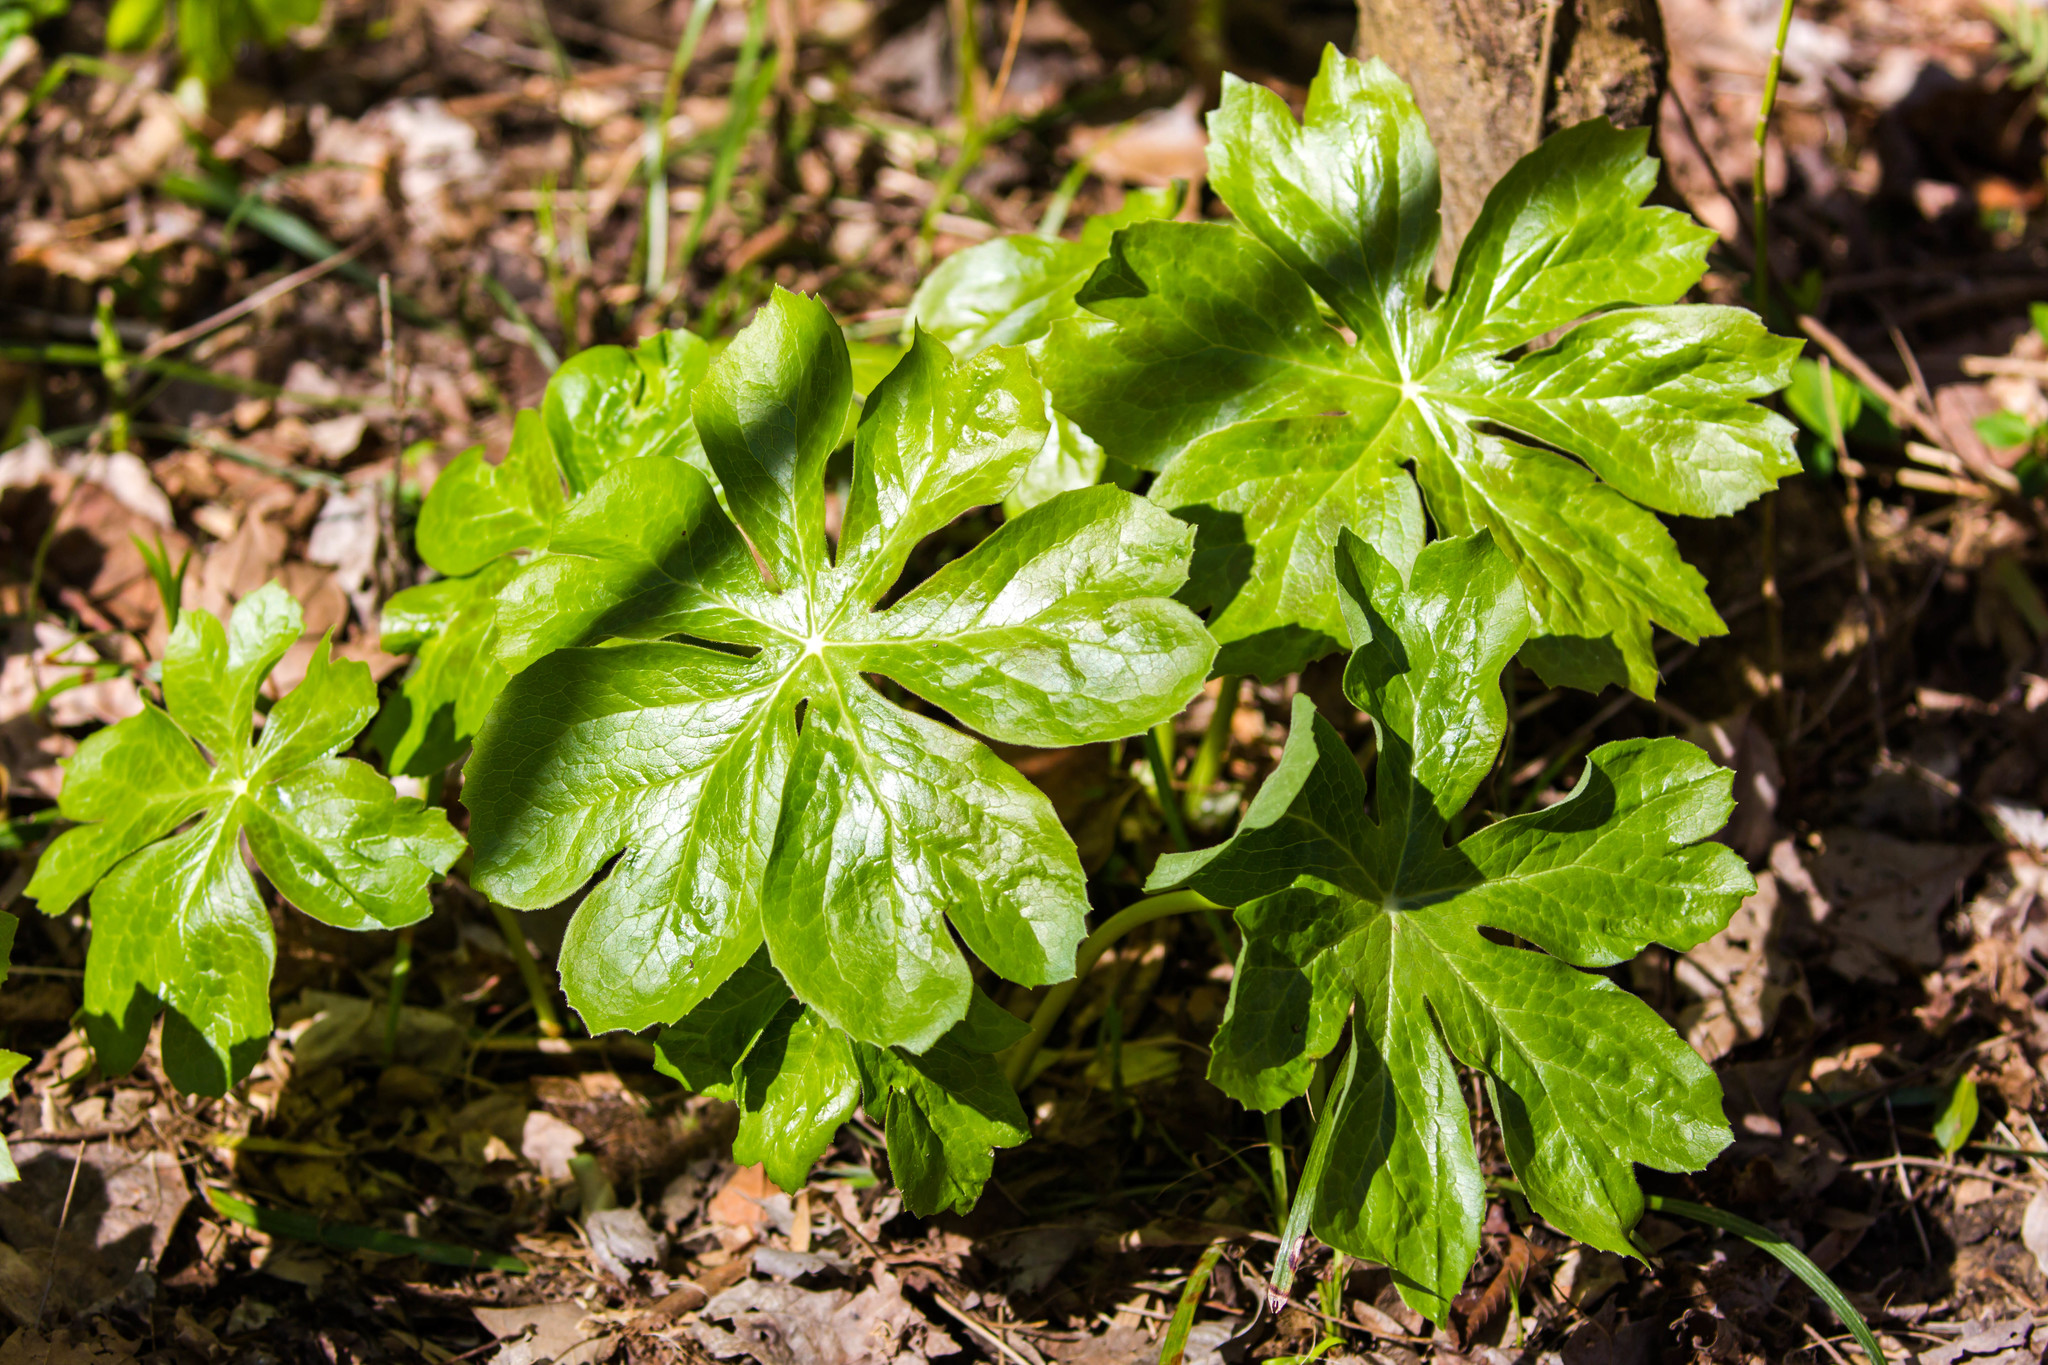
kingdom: Plantae
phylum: Tracheophyta
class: Magnoliopsida
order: Ranunculales
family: Berberidaceae
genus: Podophyllum
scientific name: Podophyllum peltatum
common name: Wild mandrake
